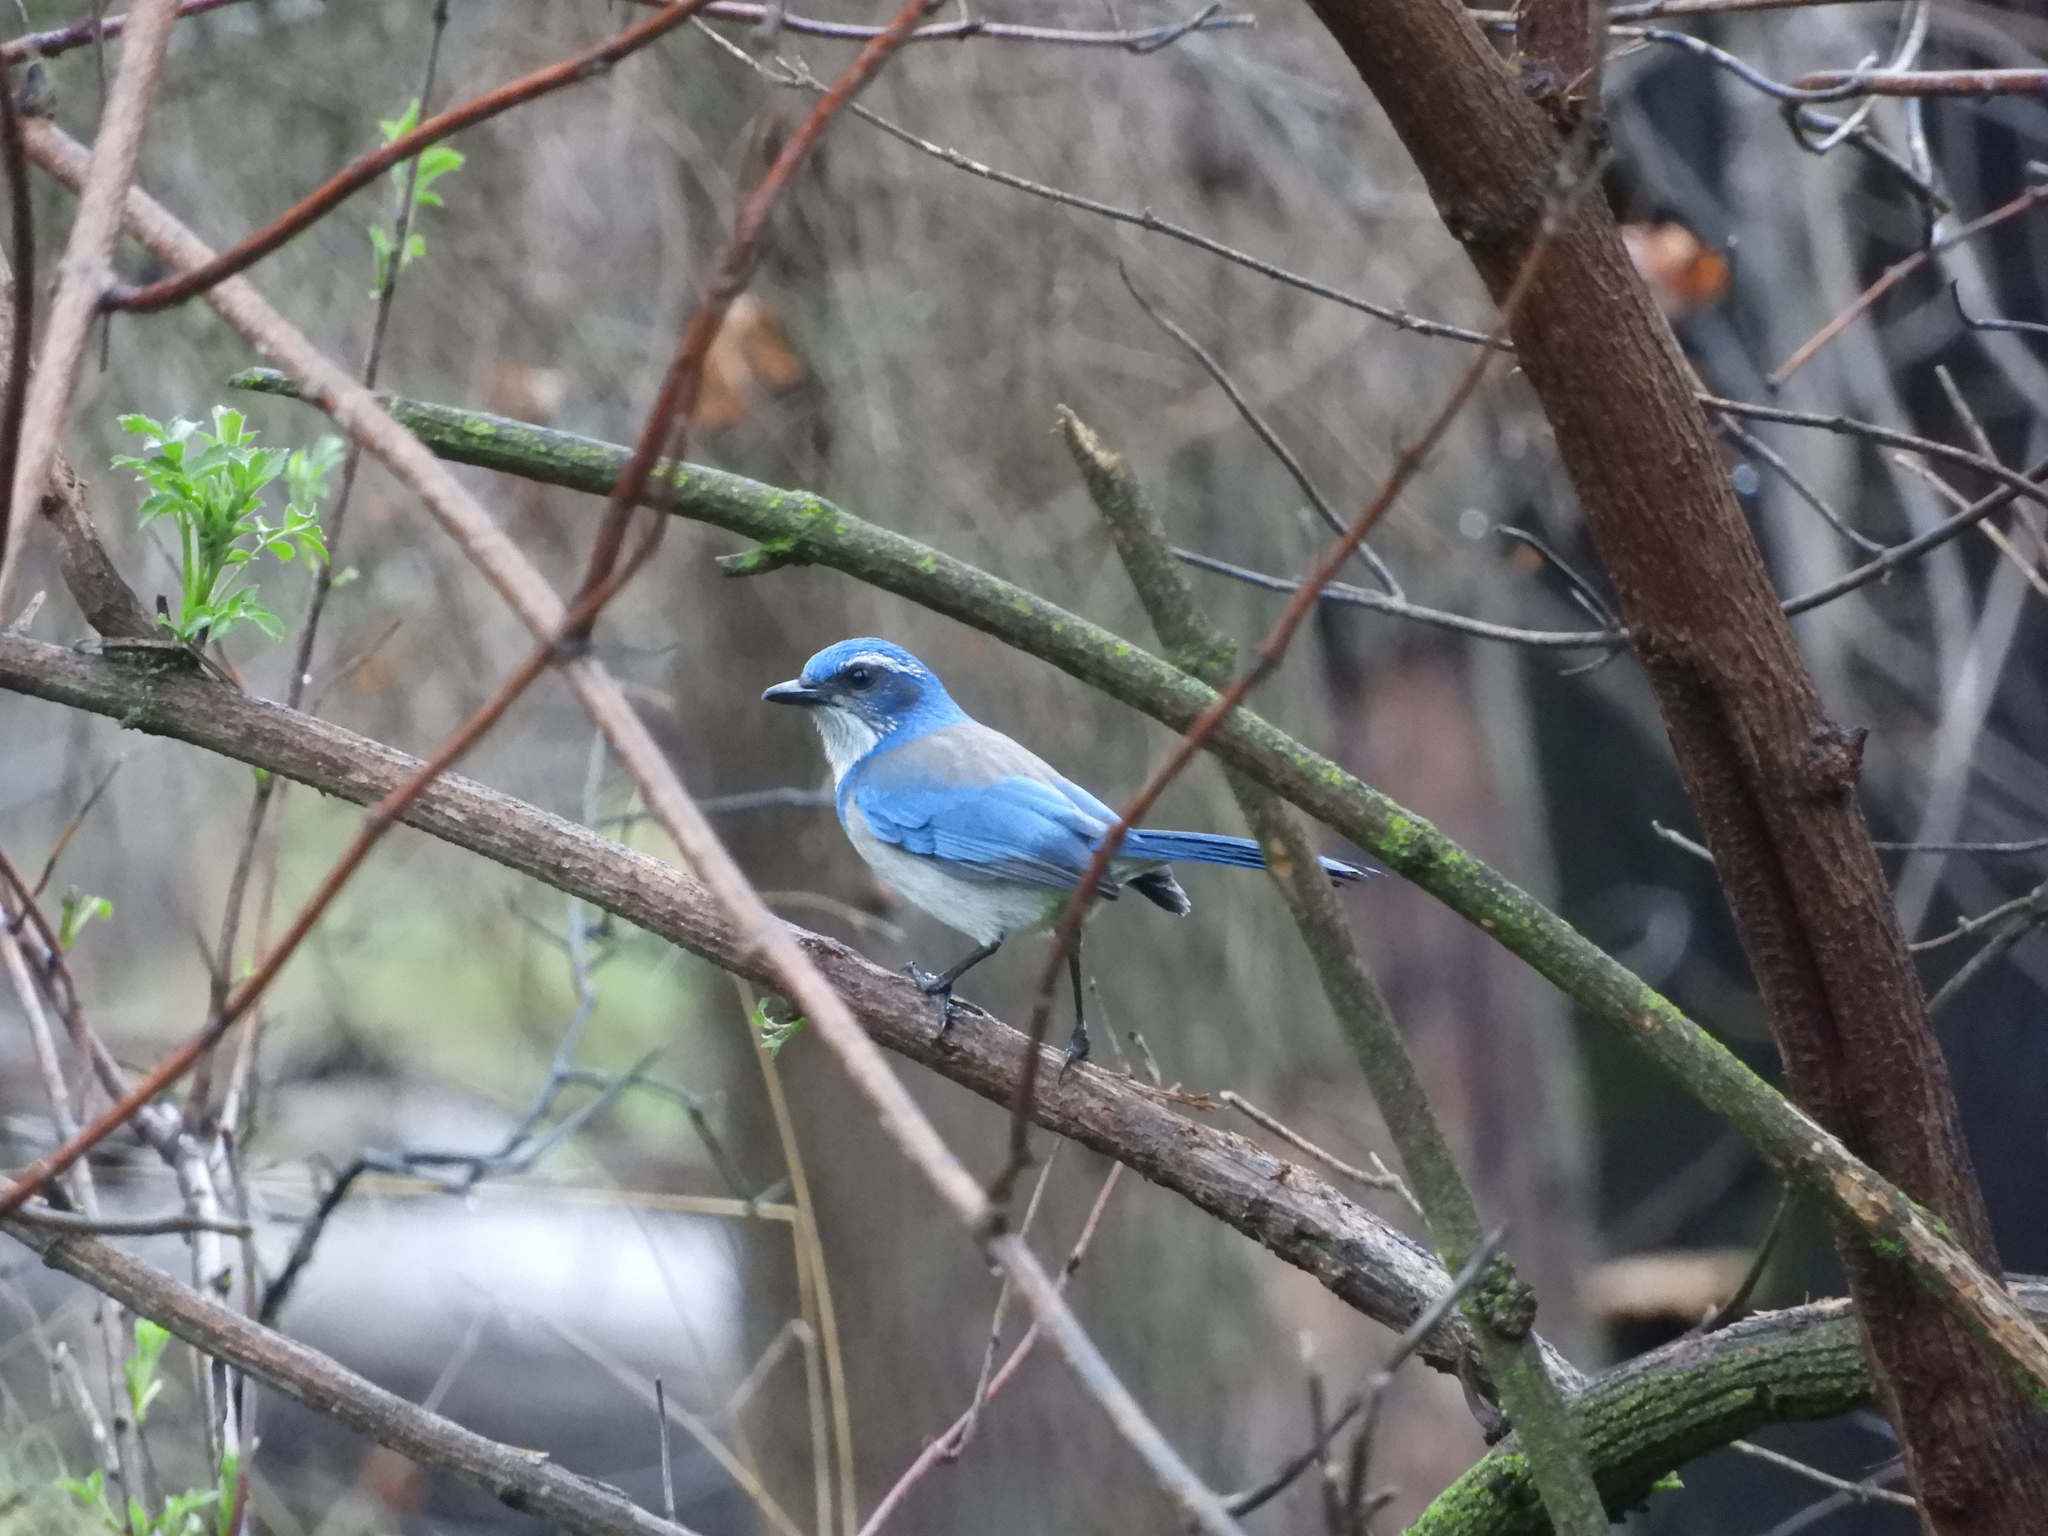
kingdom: Animalia
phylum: Chordata
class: Aves
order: Passeriformes
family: Corvidae
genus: Aphelocoma
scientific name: Aphelocoma californica
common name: California scrub-jay
